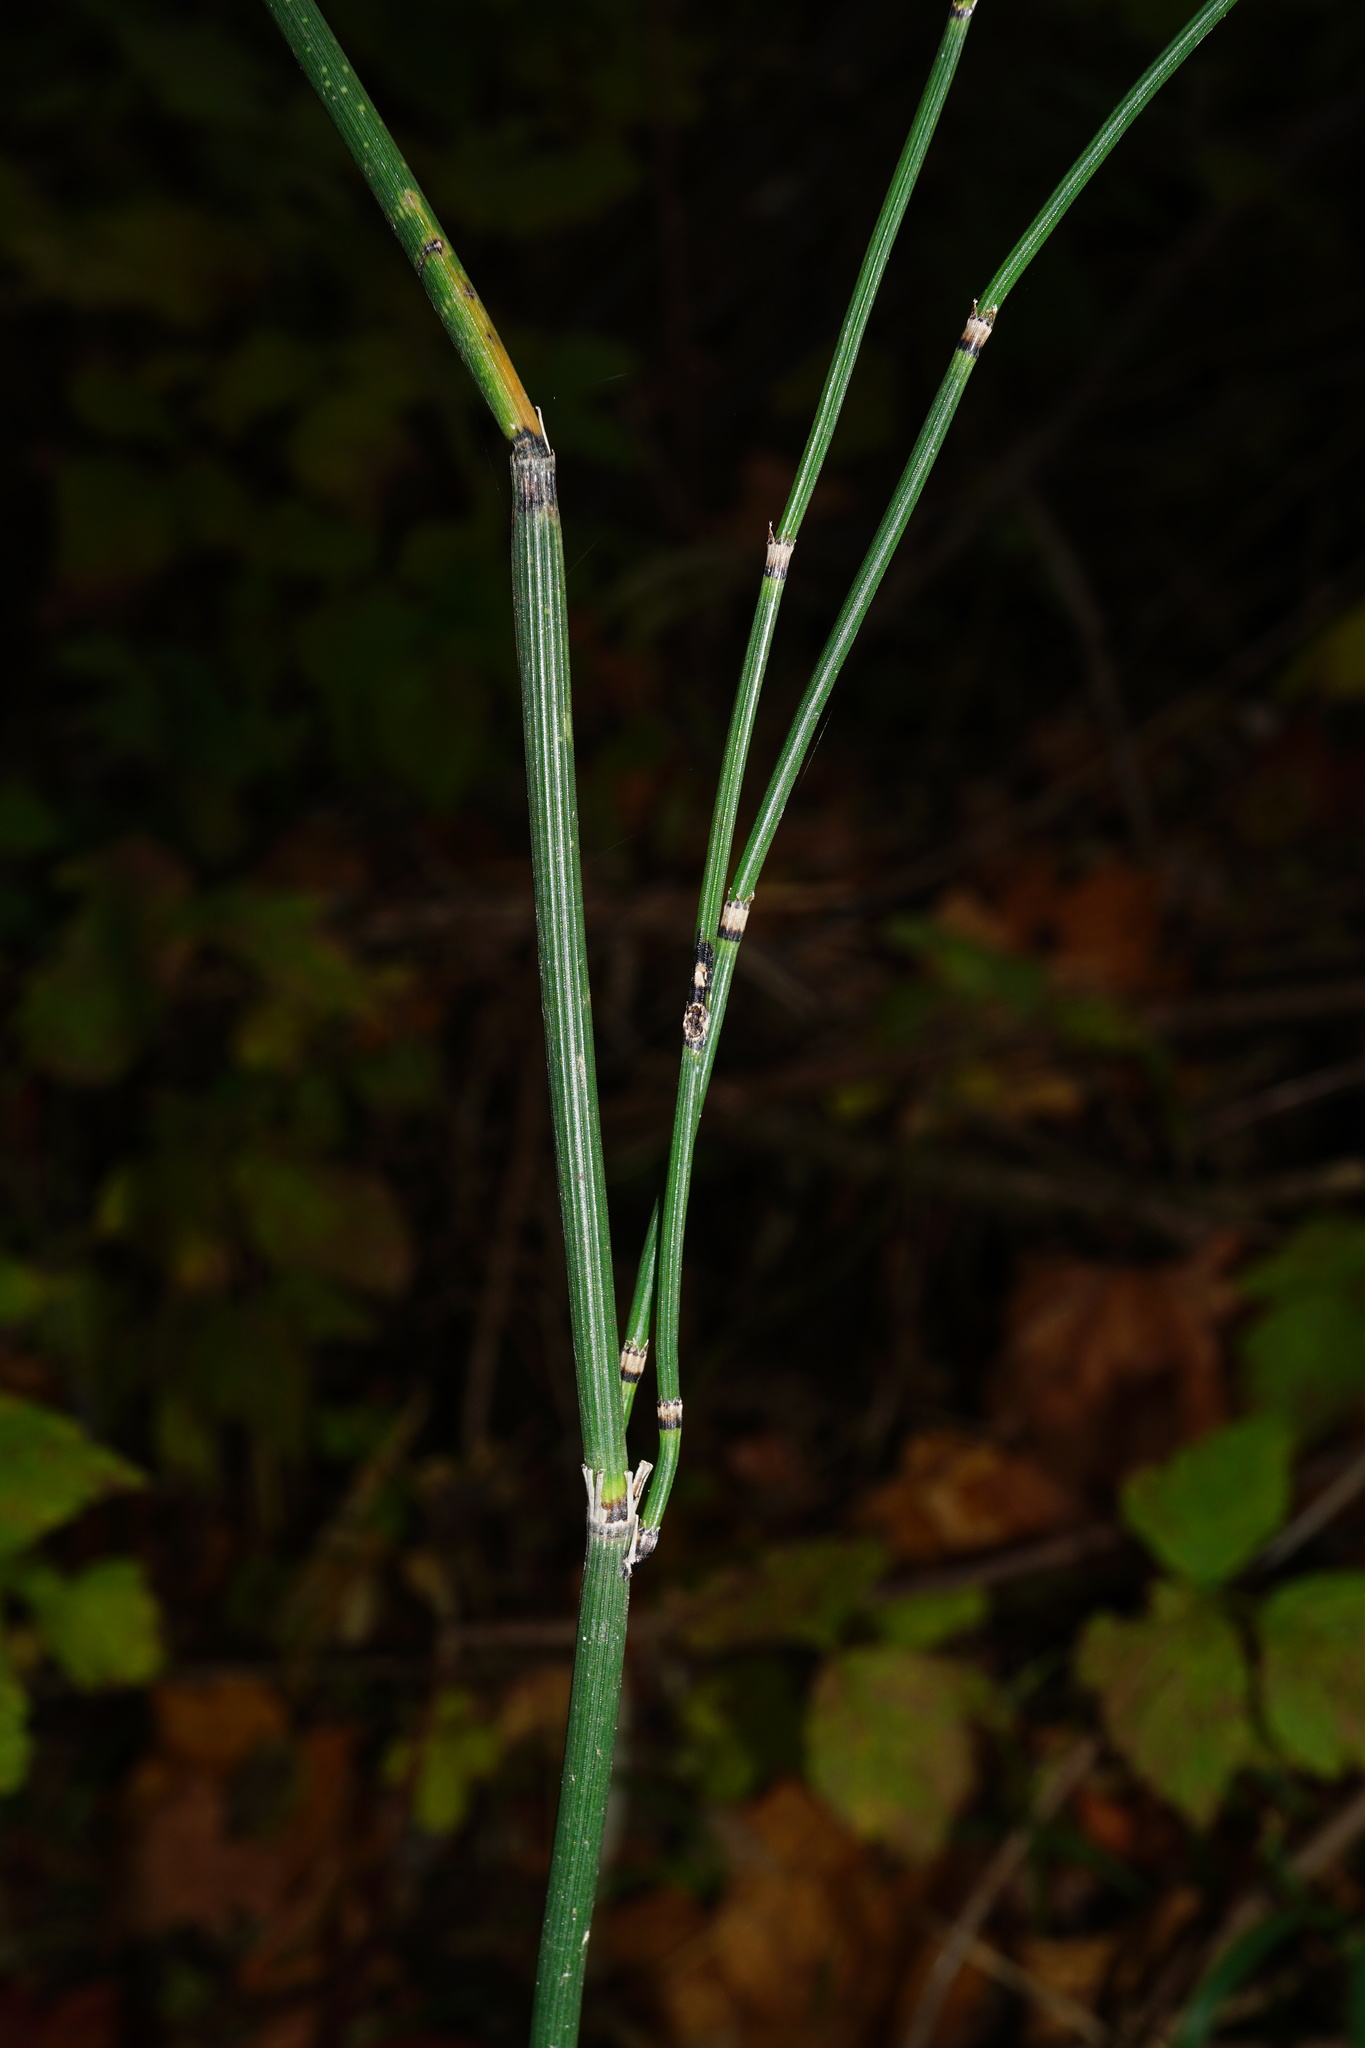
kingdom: Plantae
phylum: Tracheophyta
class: Polypodiopsida
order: Equisetales
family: Equisetaceae
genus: Equisetum
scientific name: Equisetum hyemale
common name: Rough horsetail
